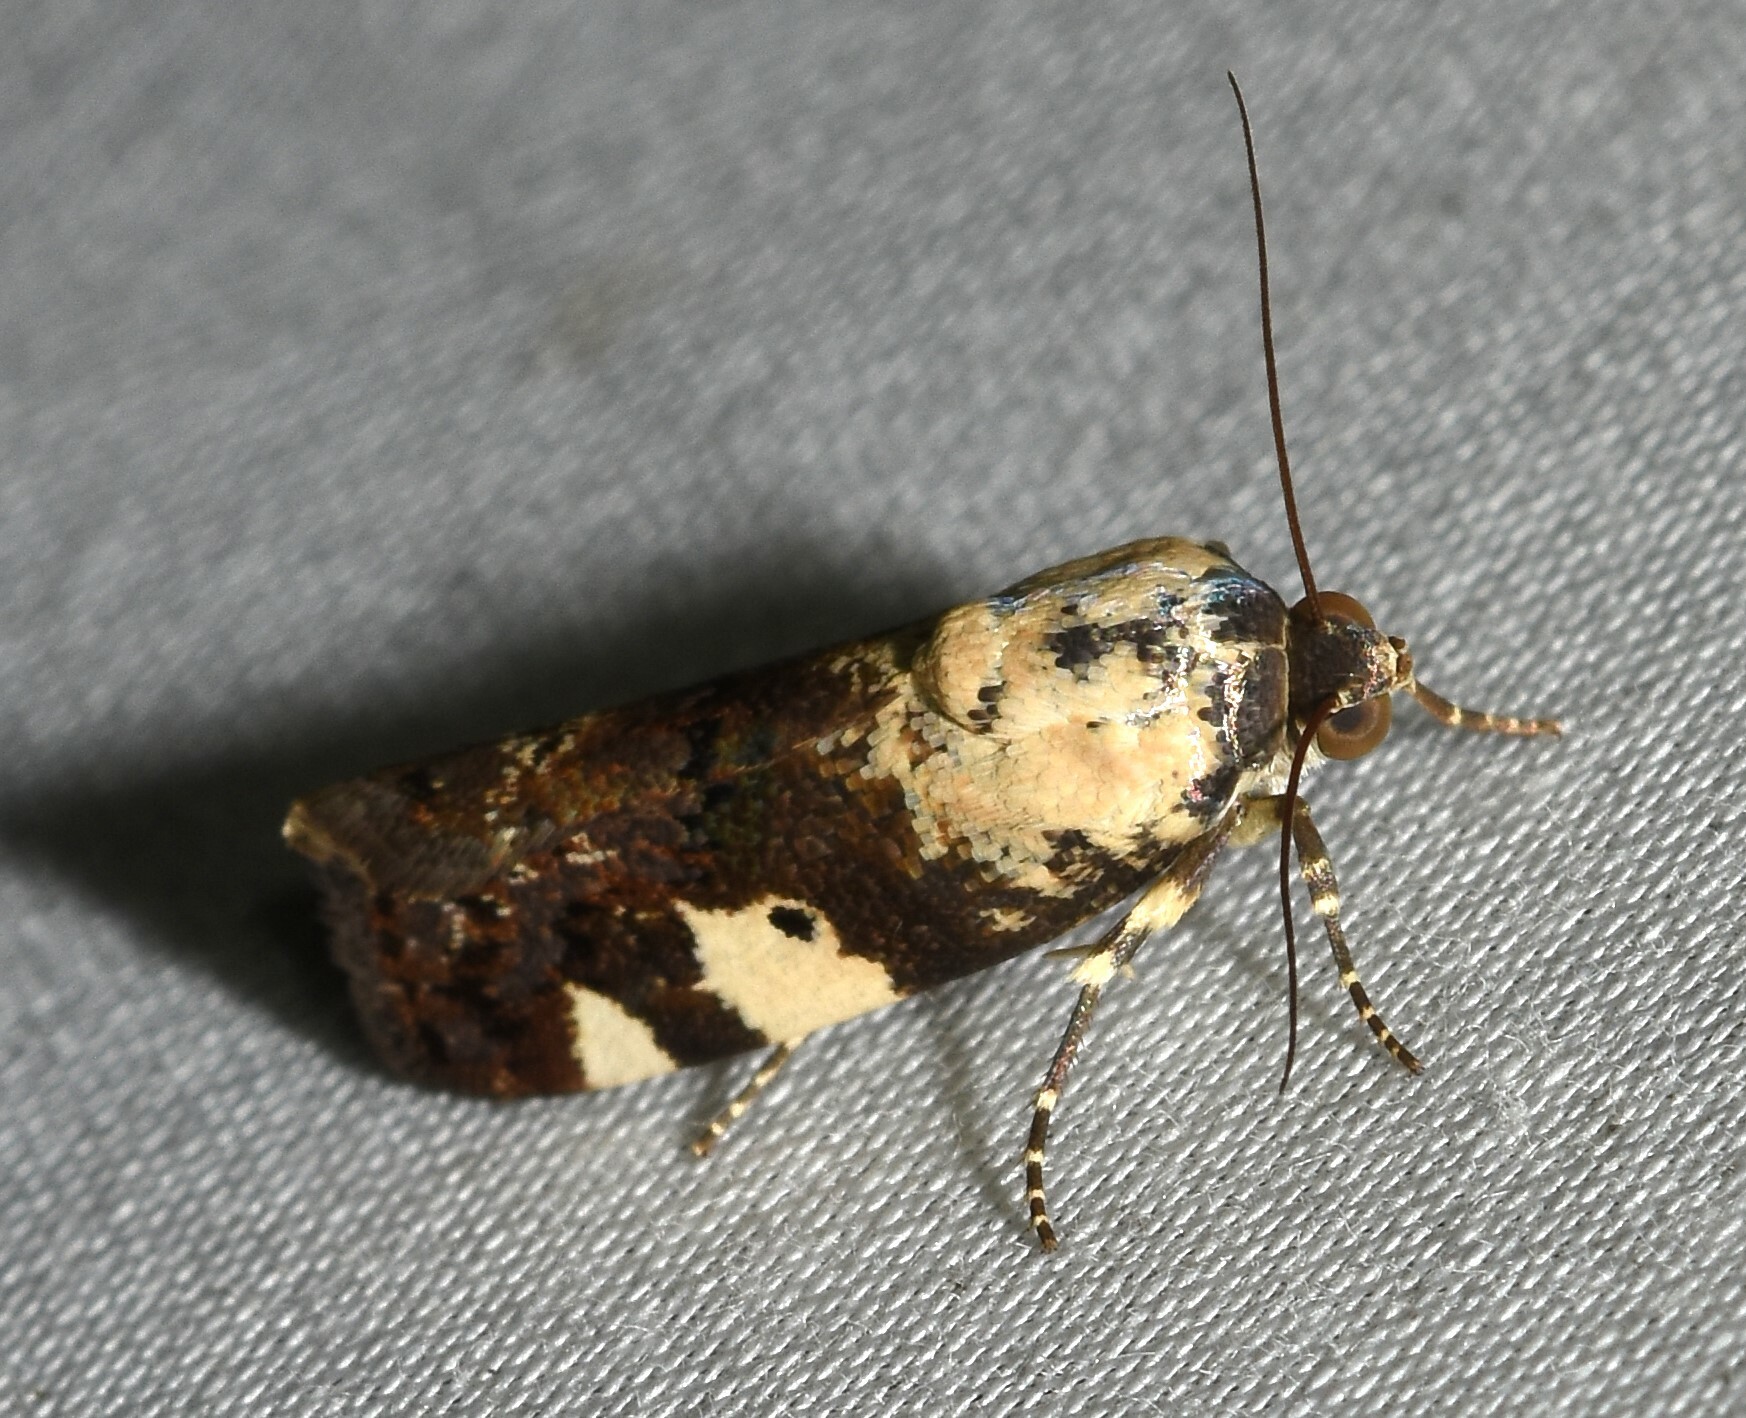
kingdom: Animalia
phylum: Arthropoda
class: Insecta
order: Lepidoptera
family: Noctuidae
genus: Acontia
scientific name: Acontia aprica
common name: Nun
